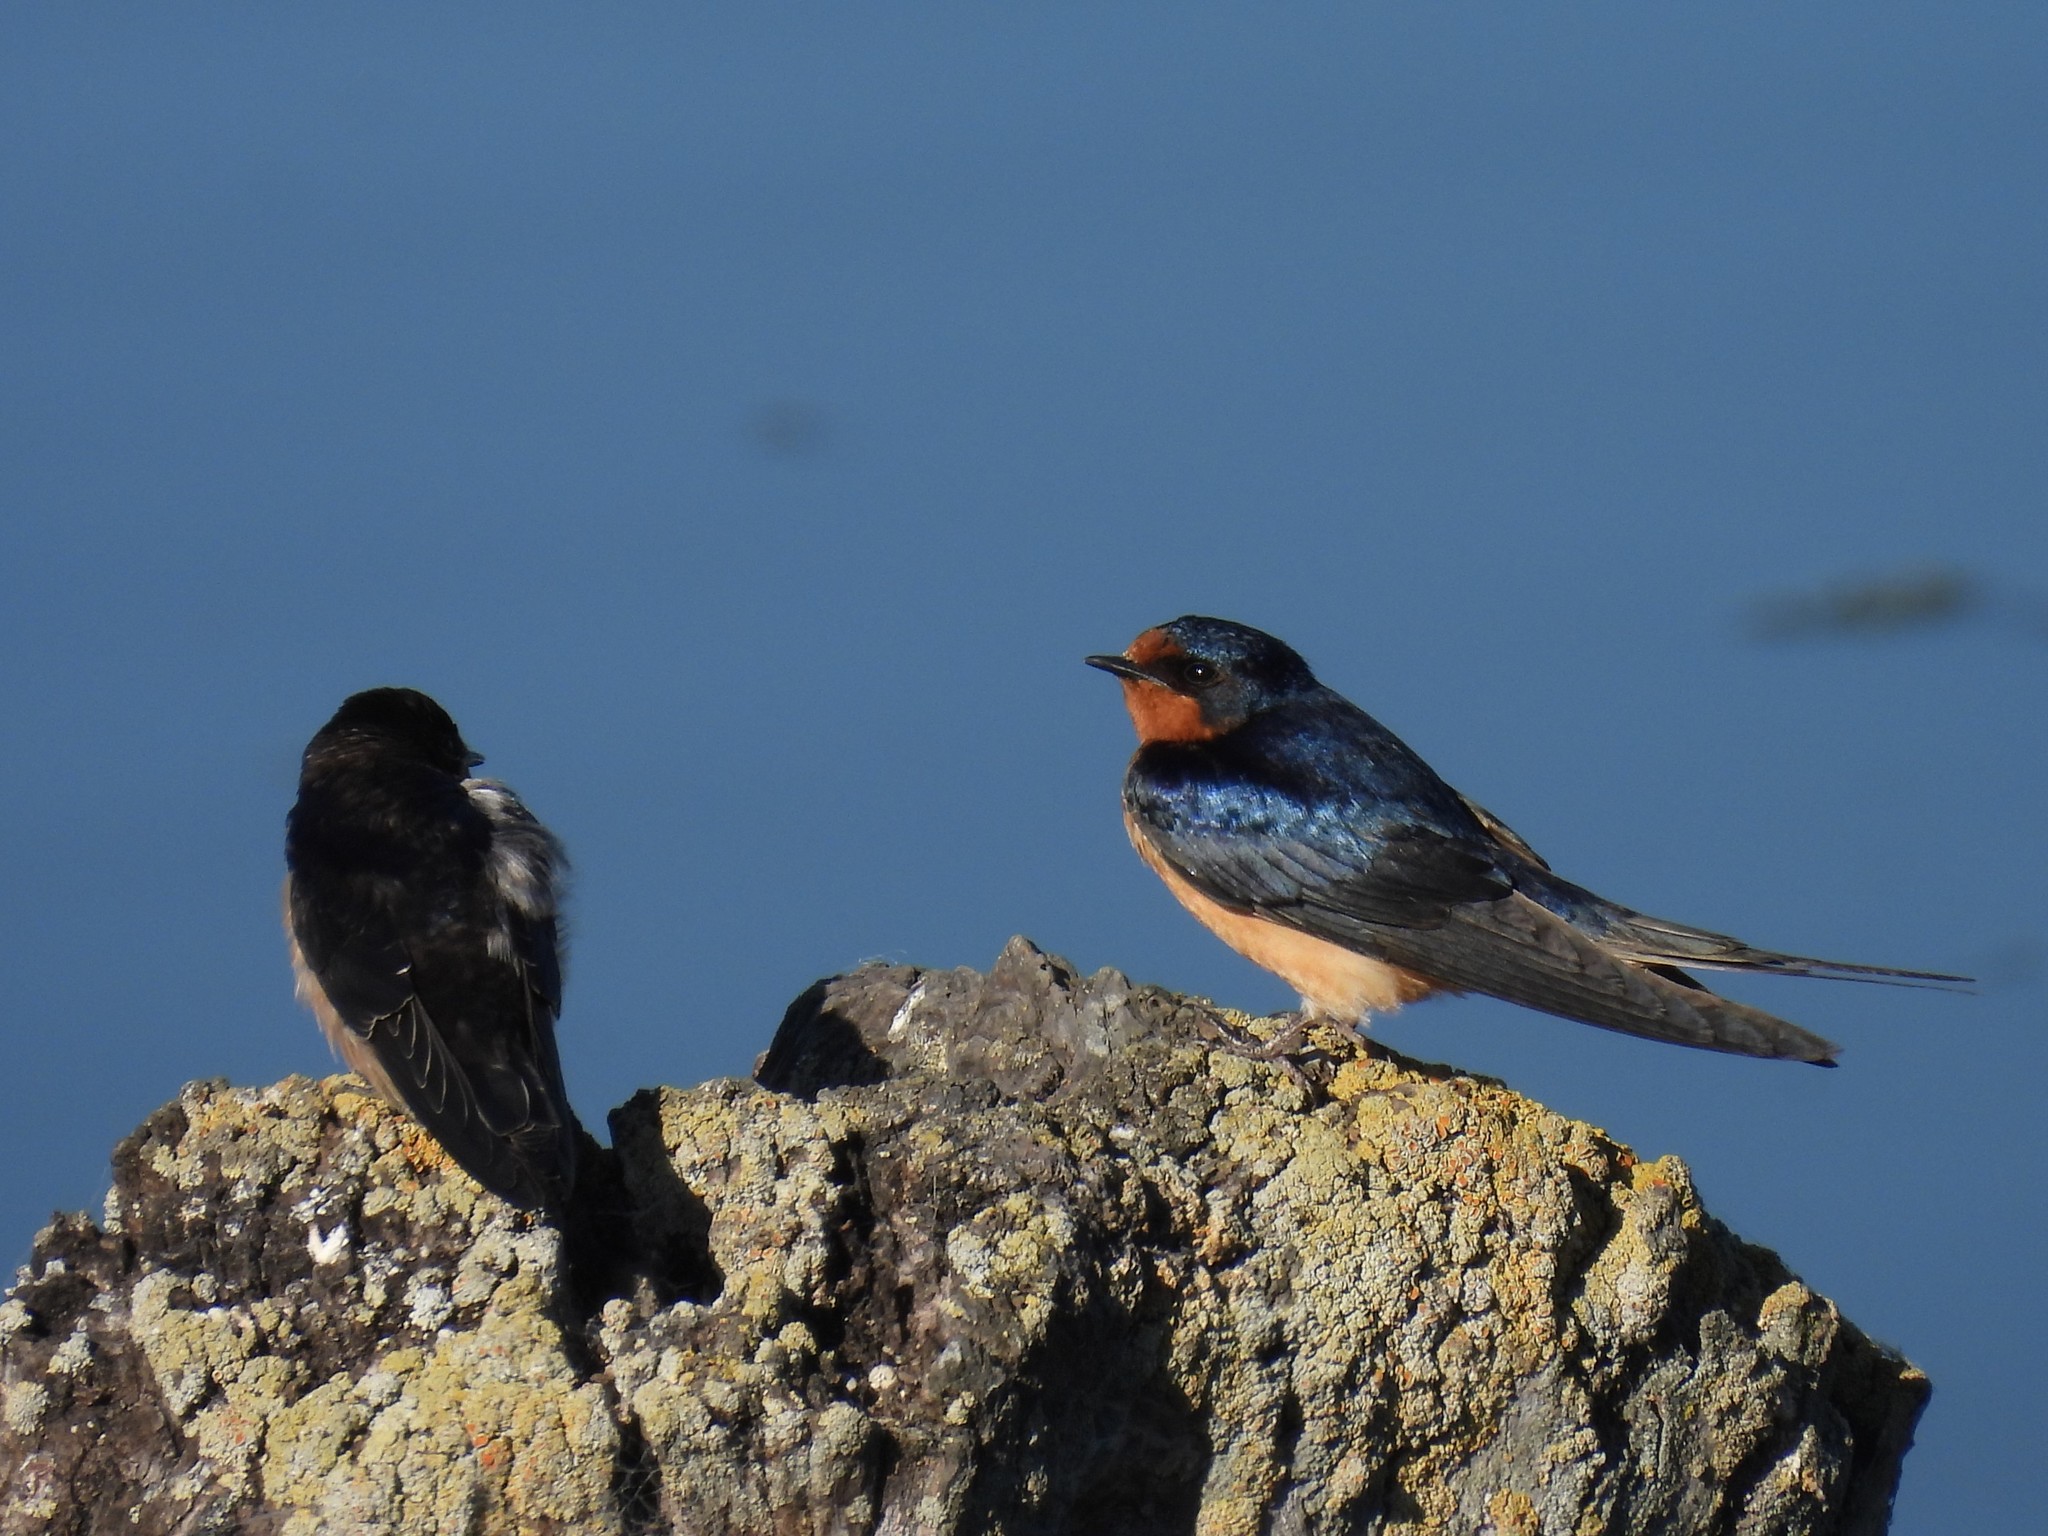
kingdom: Animalia
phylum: Chordata
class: Aves
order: Passeriformes
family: Hirundinidae
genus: Hirundo
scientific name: Hirundo rustica
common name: Barn swallow
